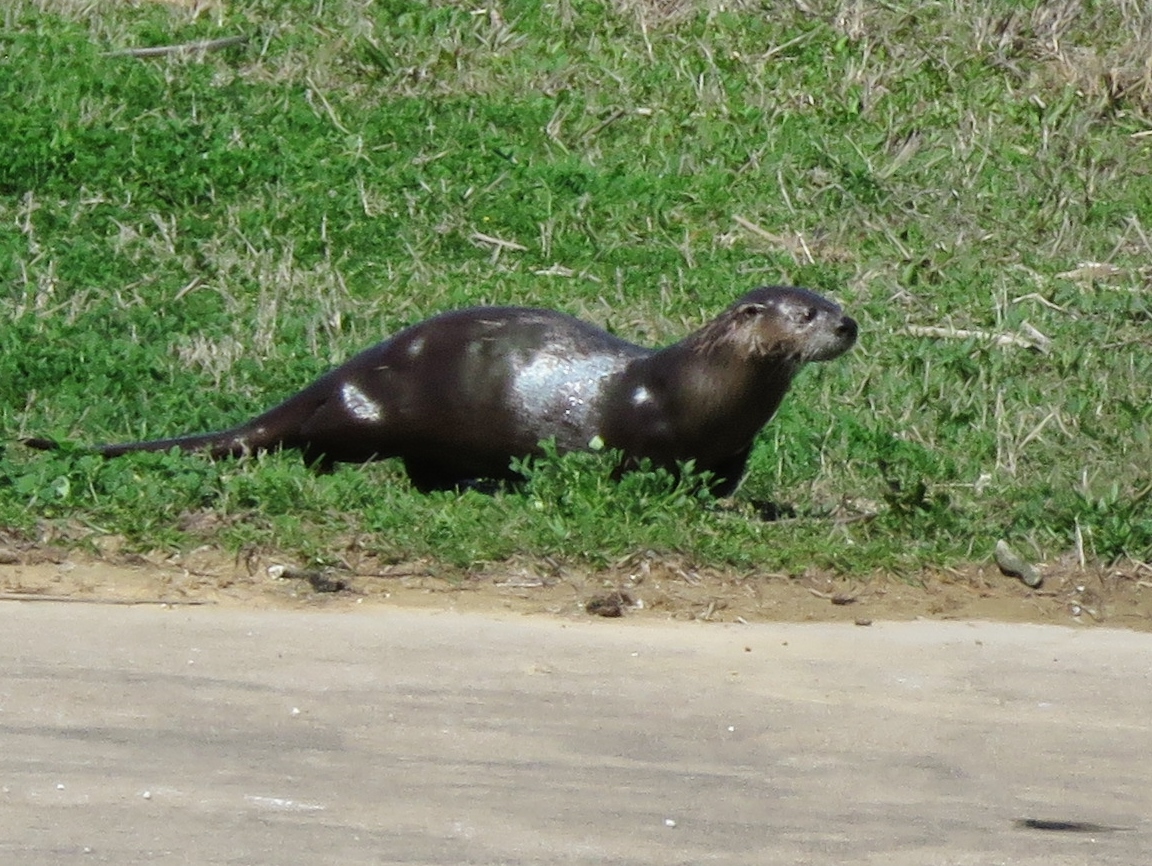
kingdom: Animalia
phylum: Chordata
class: Mammalia
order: Carnivora
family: Mustelidae
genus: Lontra
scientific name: Lontra canadensis
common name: North american river otter
